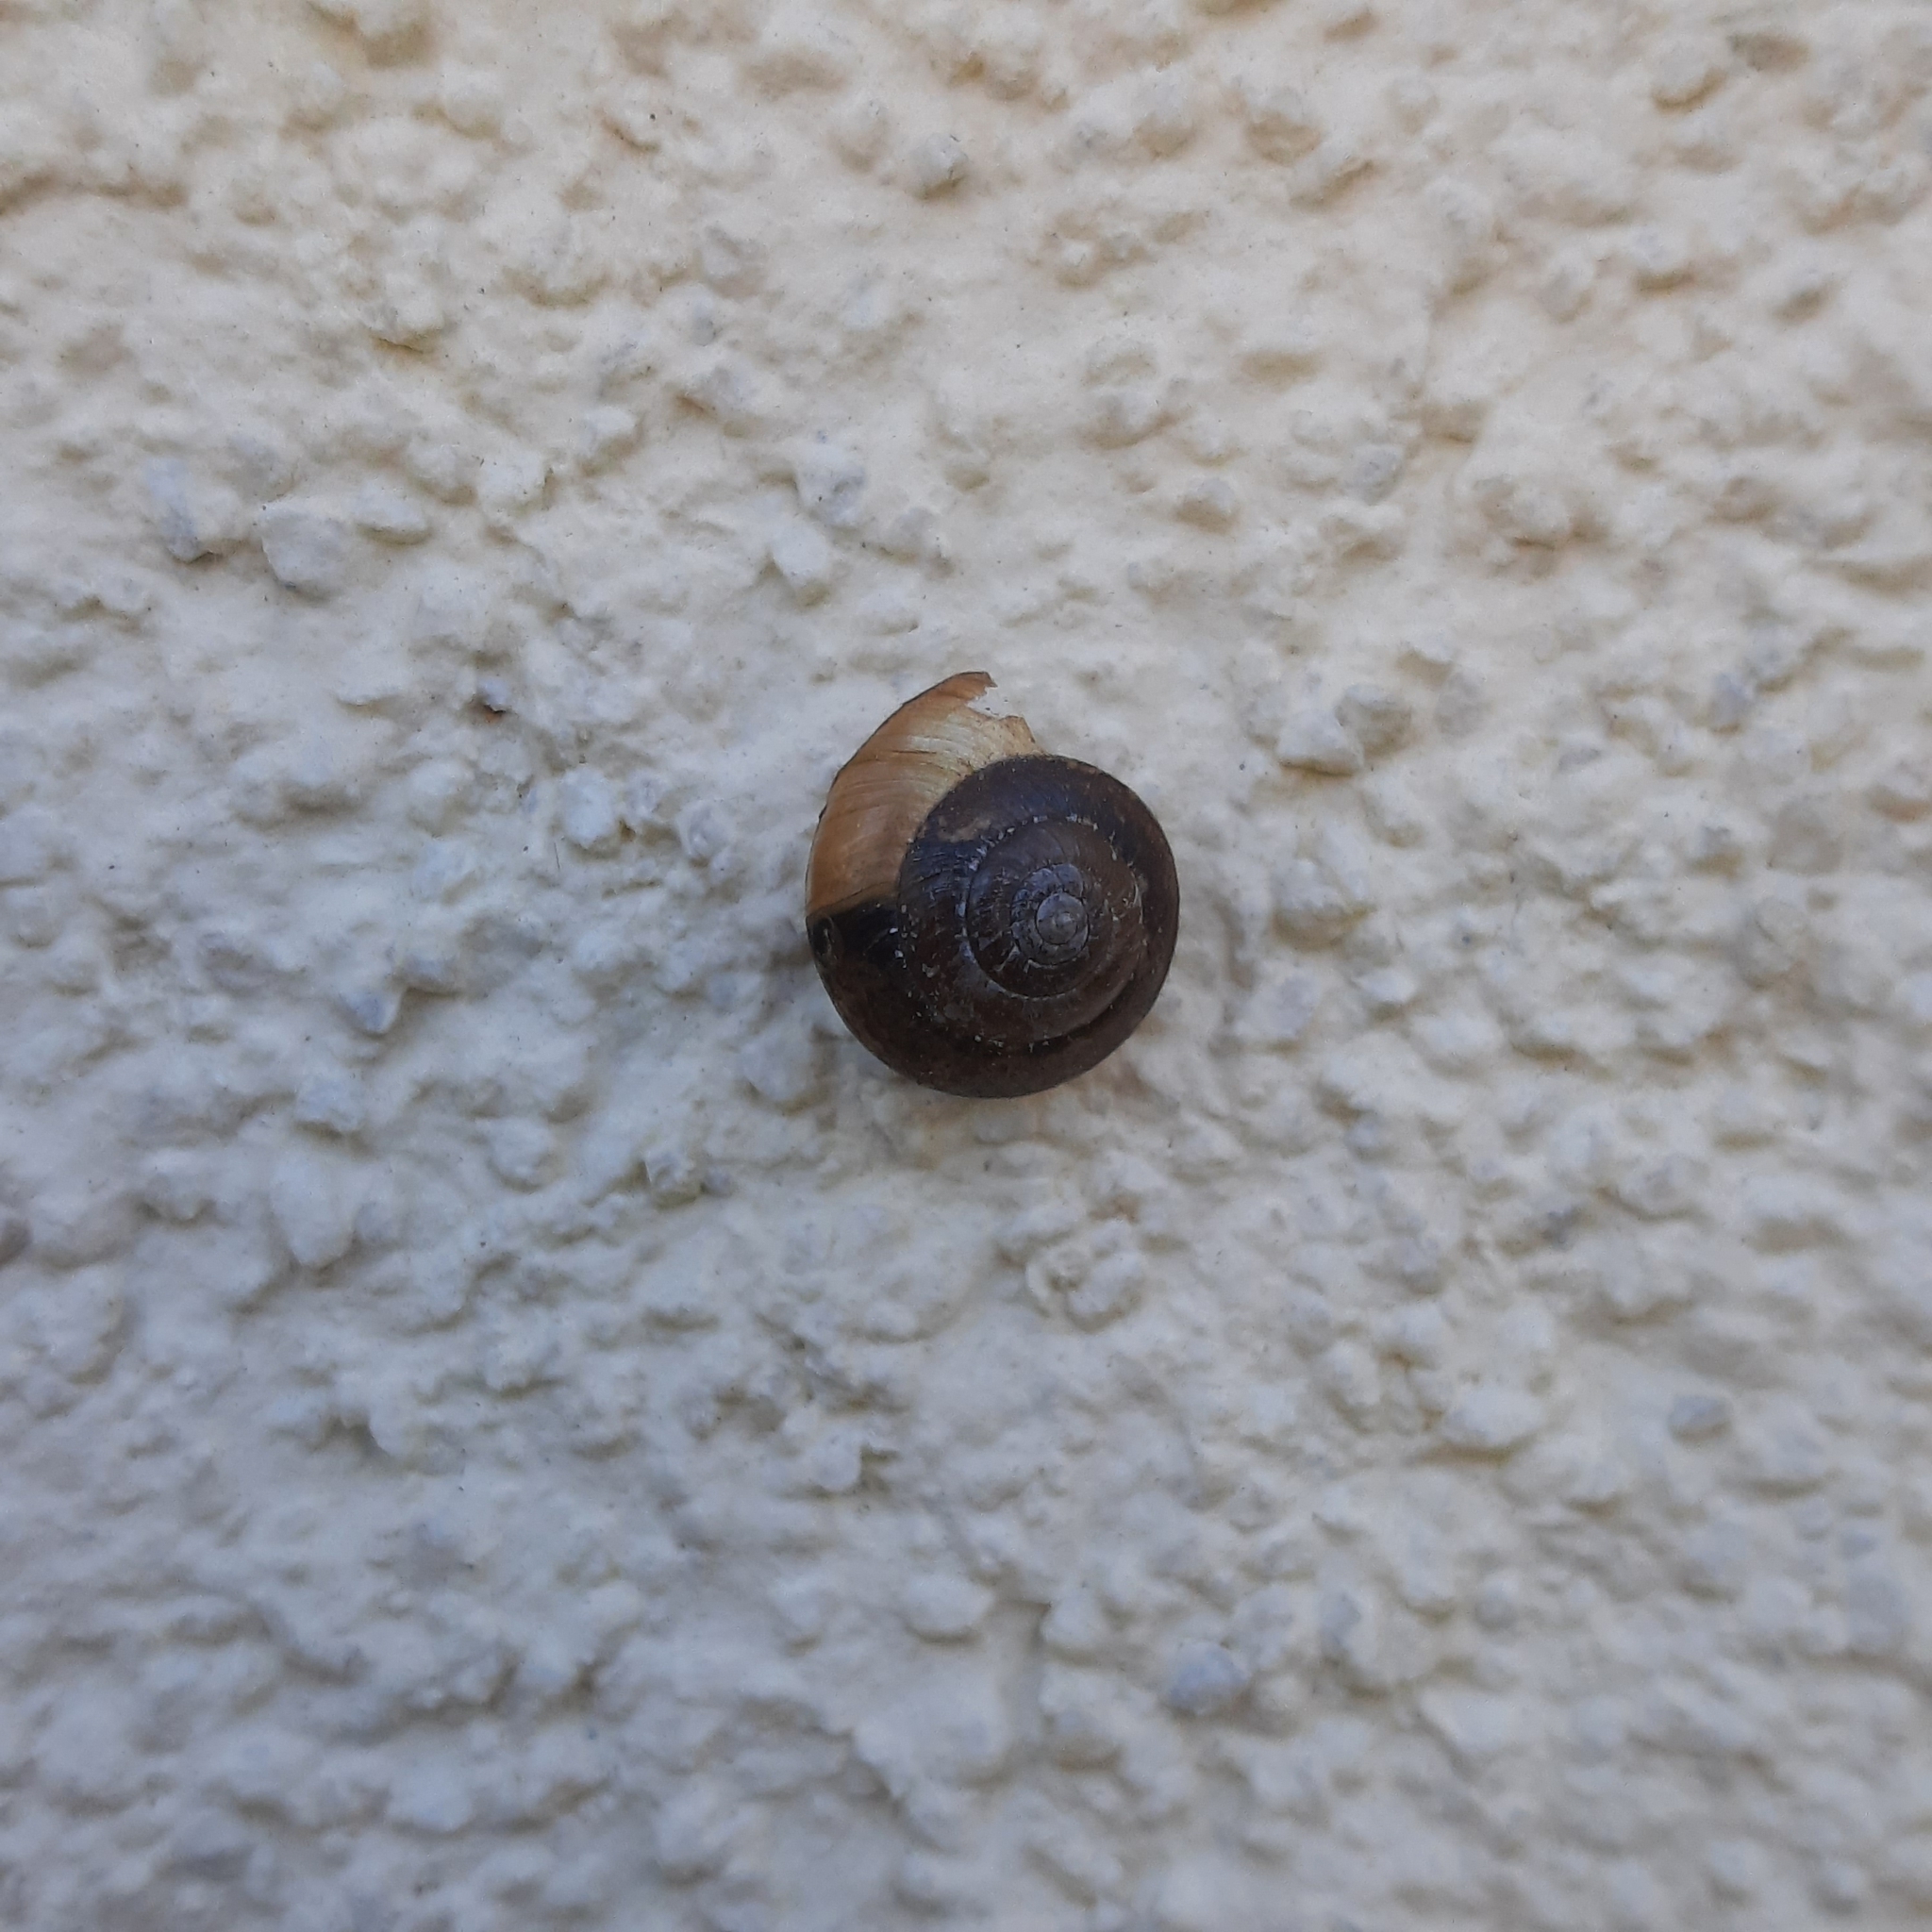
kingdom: Animalia
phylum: Mollusca
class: Gastropoda
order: Stylommatophora
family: Hygromiidae
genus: Hygromia
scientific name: Hygromia cinctella
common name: Girdled snail
